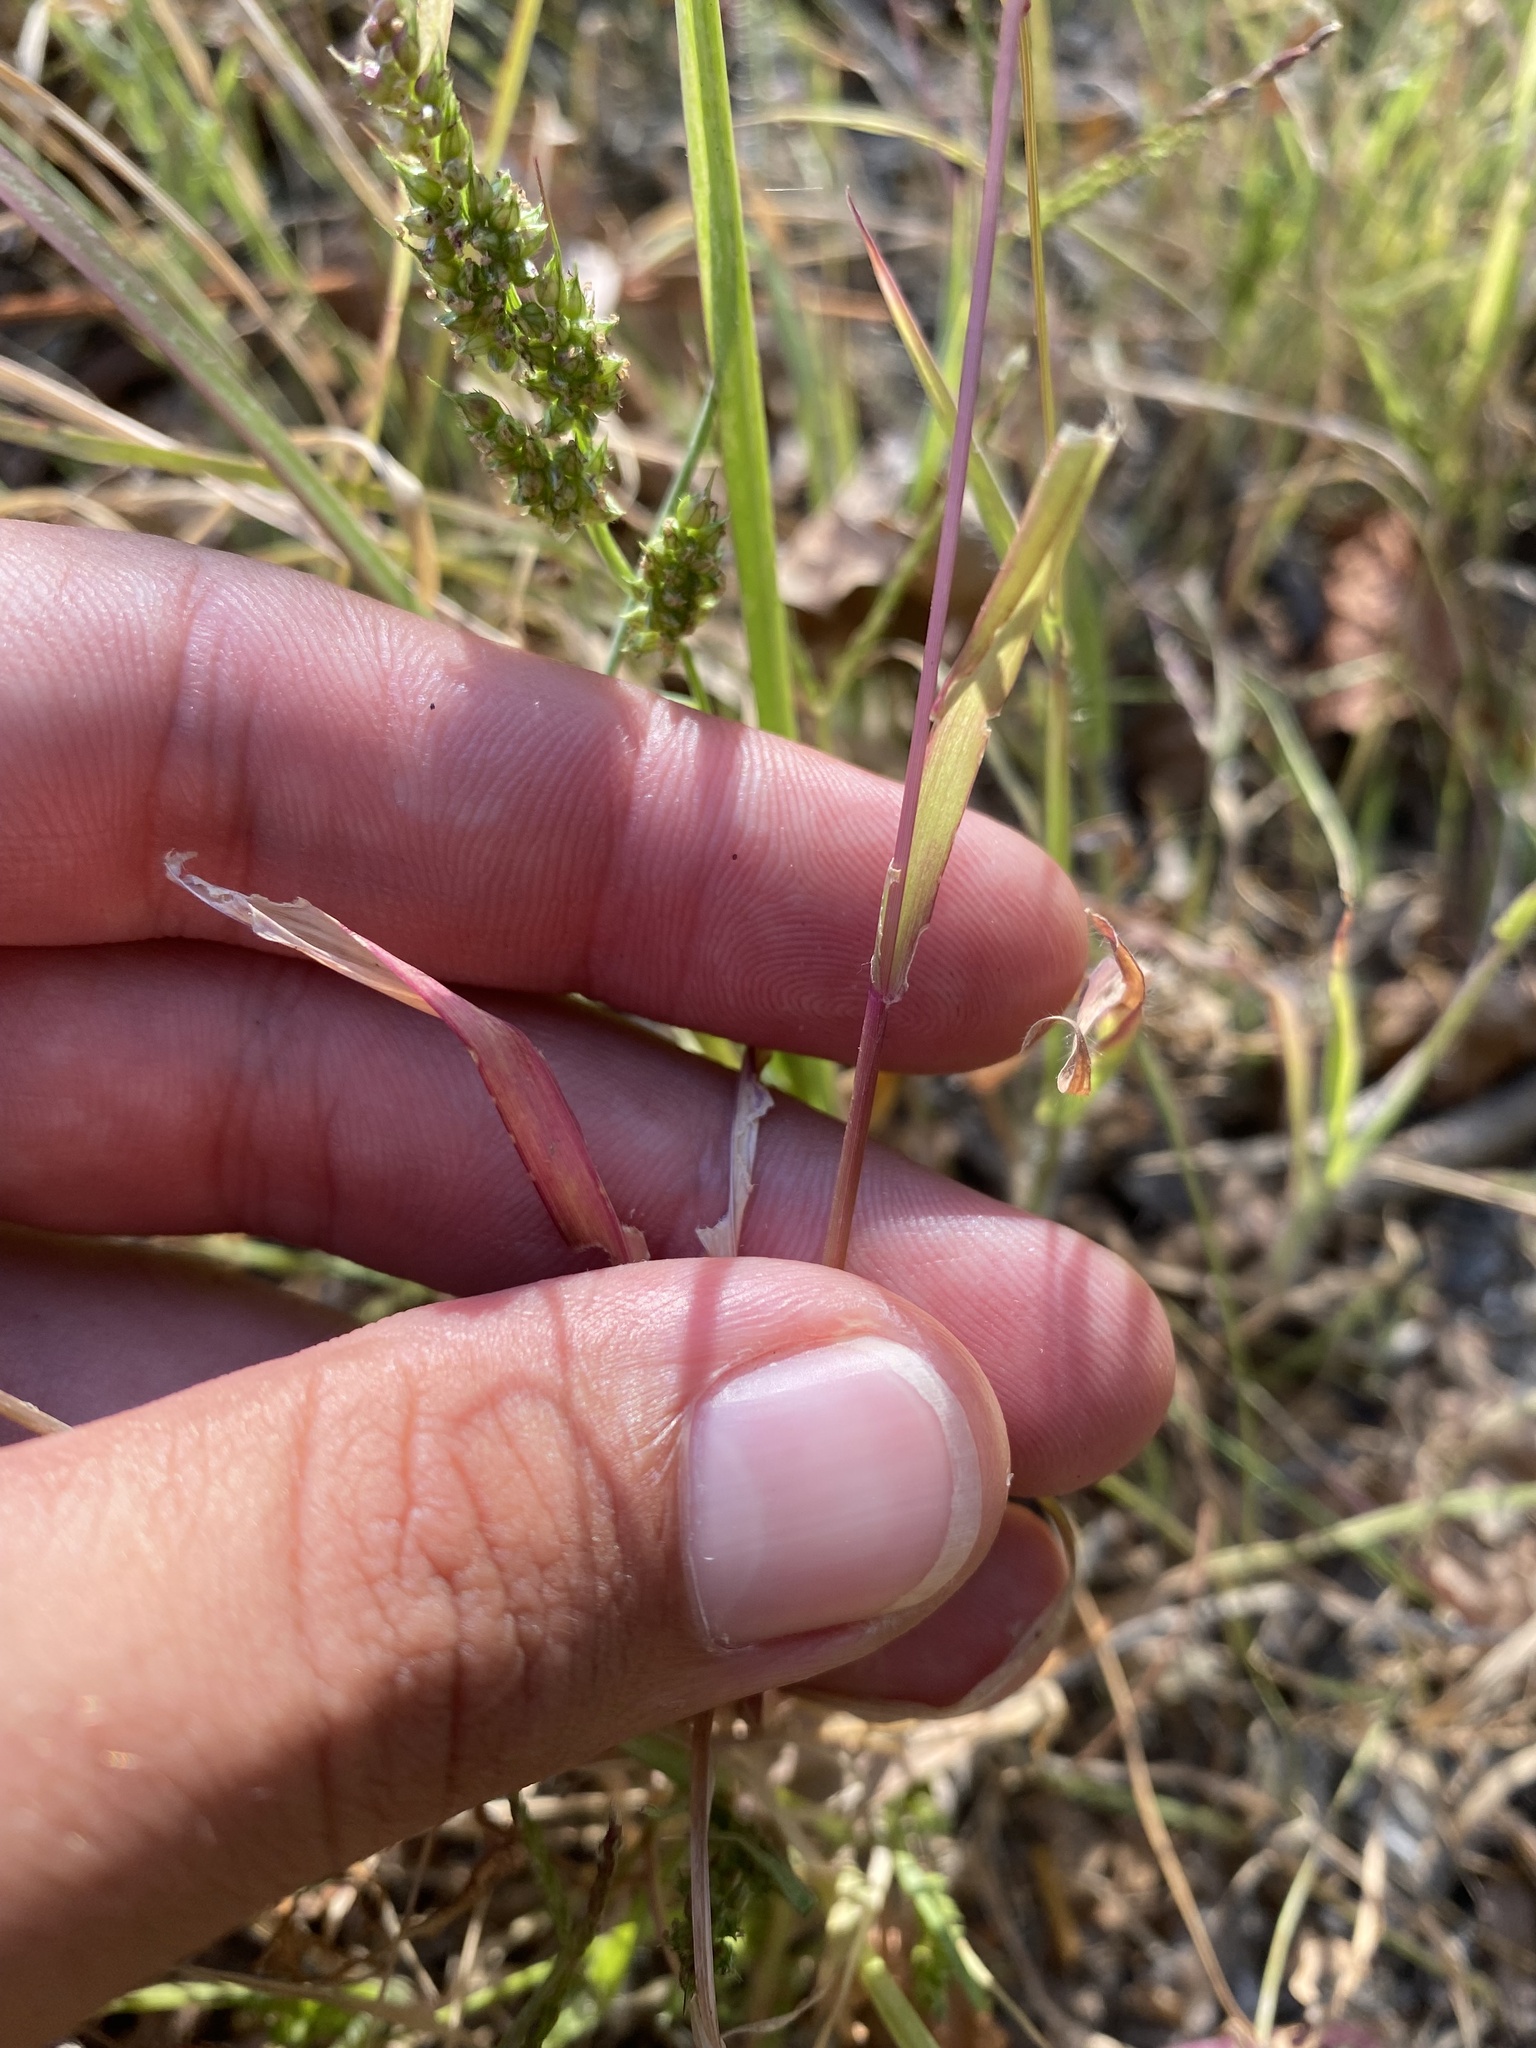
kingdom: Plantae
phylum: Tracheophyta
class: Liliopsida
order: Poales
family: Poaceae
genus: Setaria
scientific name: Setaria pumila
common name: Yellow bristle-grass
